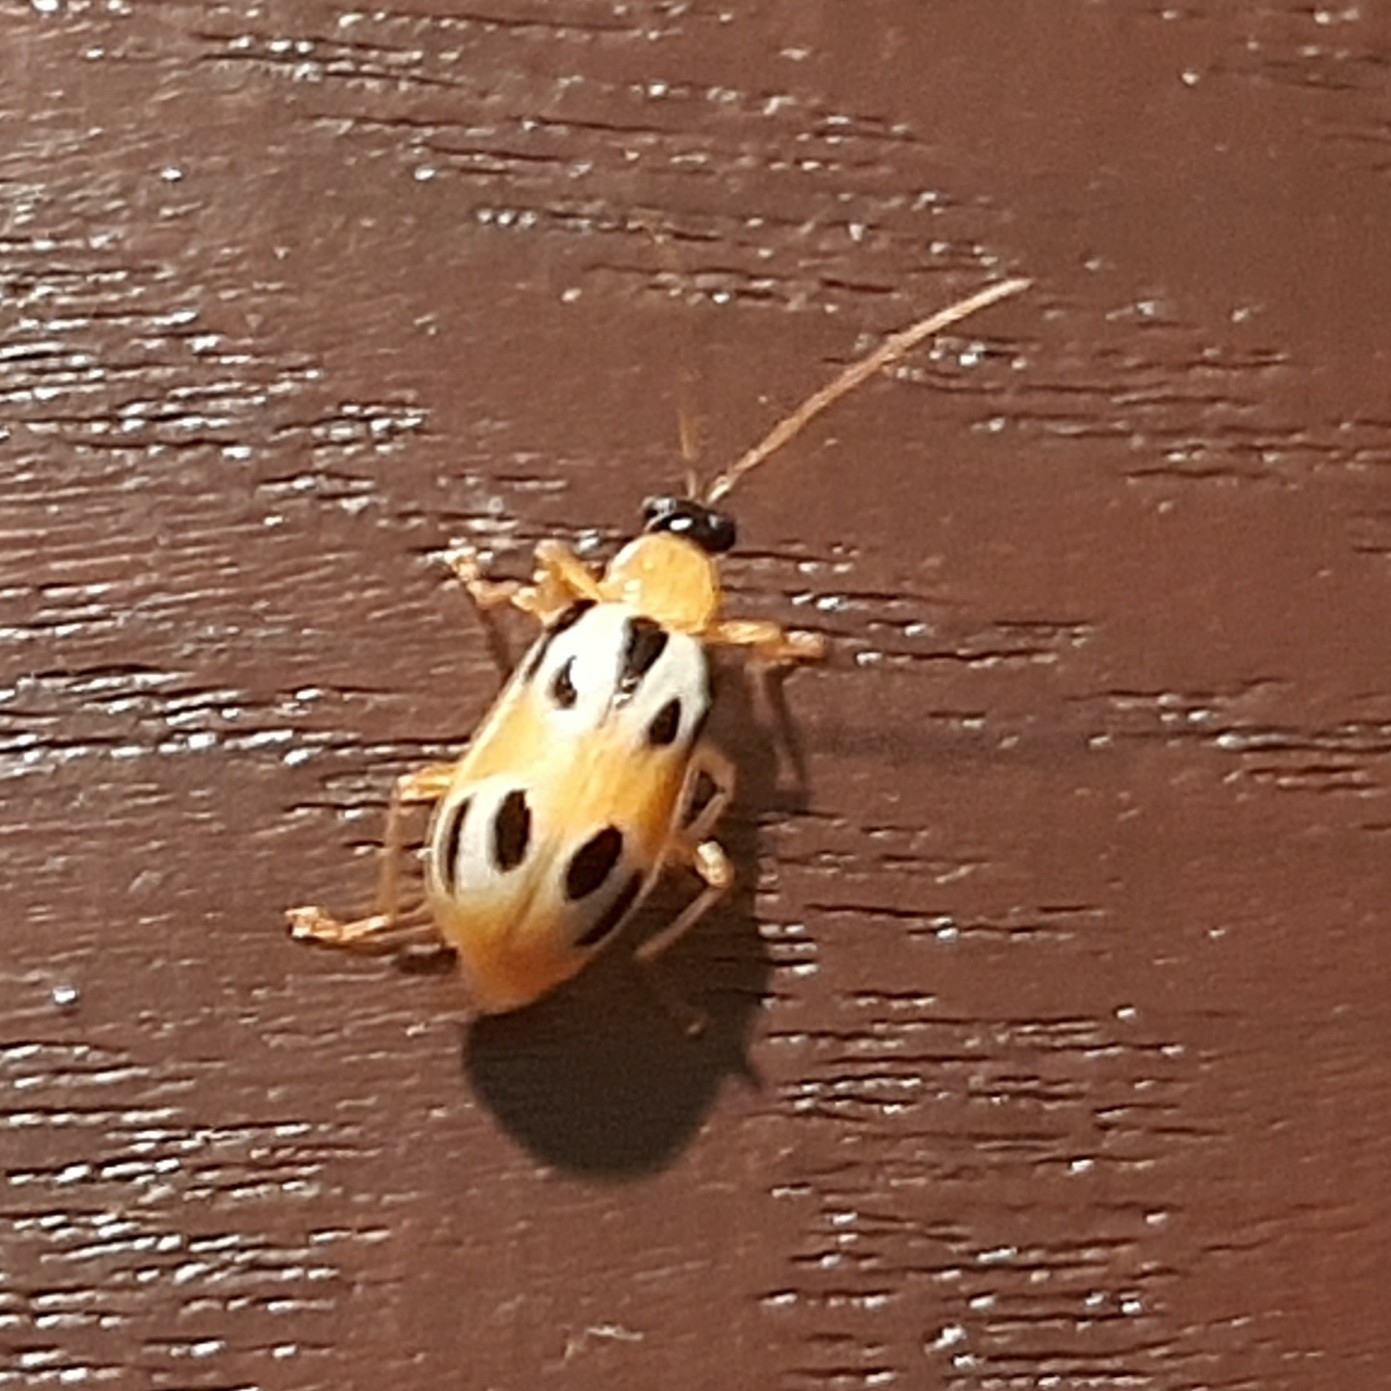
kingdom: Animalia
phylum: Arthropoda
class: Insecta
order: Coleoptera
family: Chrysomelidae
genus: Diabrotica
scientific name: Diabrotica
